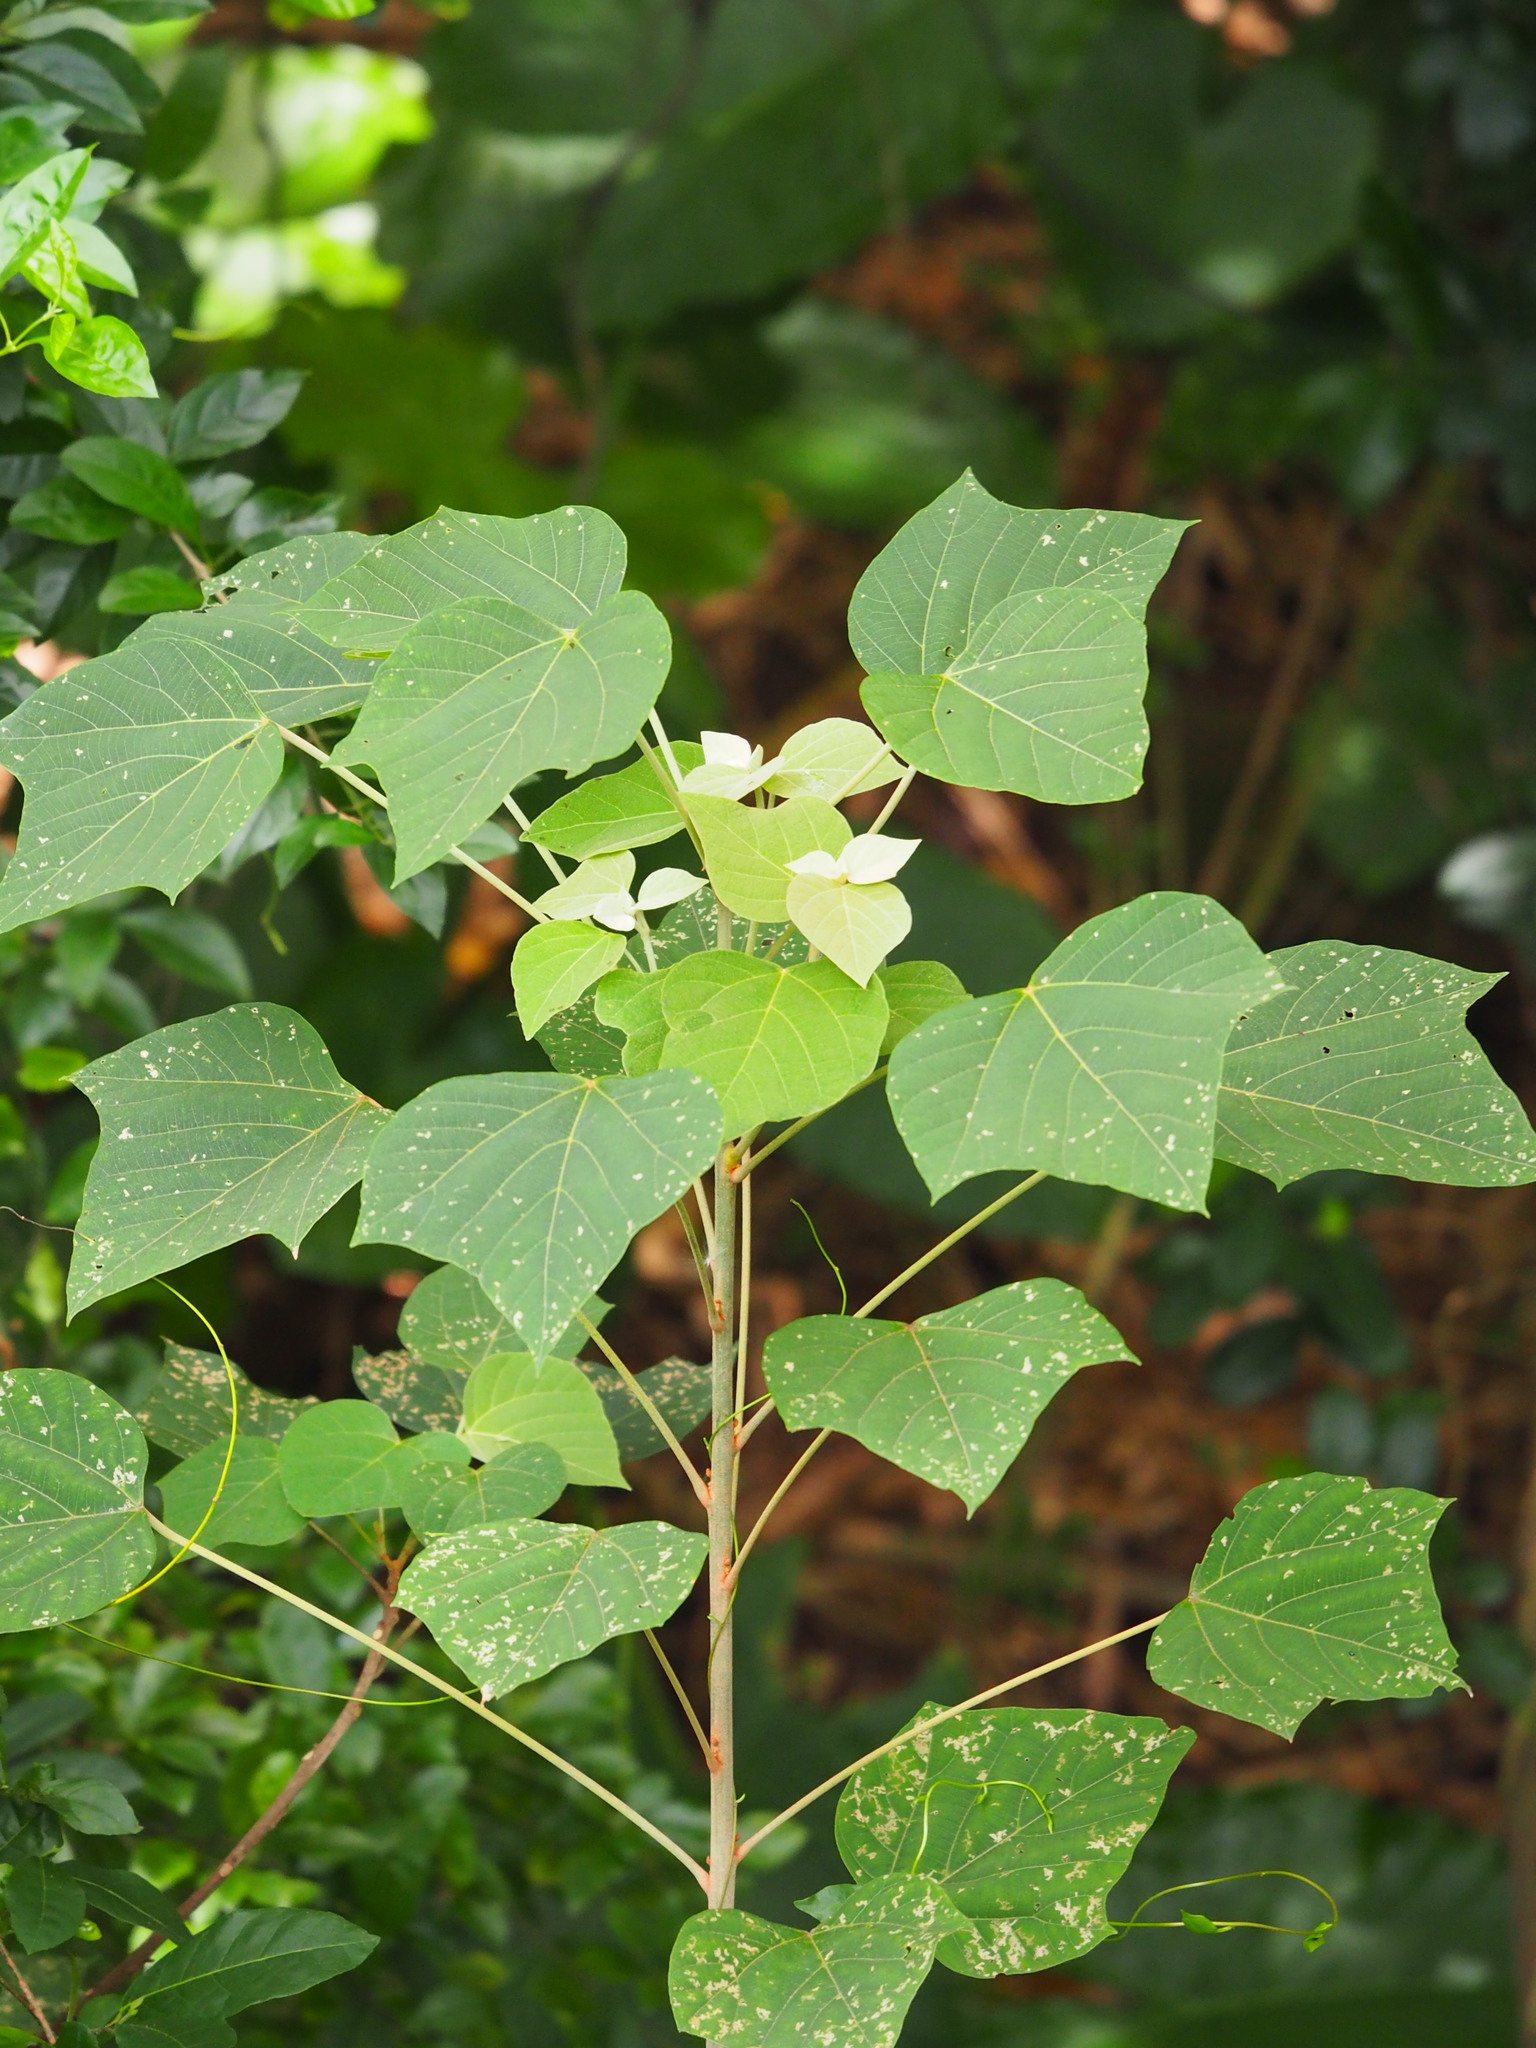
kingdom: Plantae
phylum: Tracheophyta
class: Magnoliopsida
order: Malpighiales
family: Euphorbiaceae
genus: Mallotus
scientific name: Mallotus japonicus
